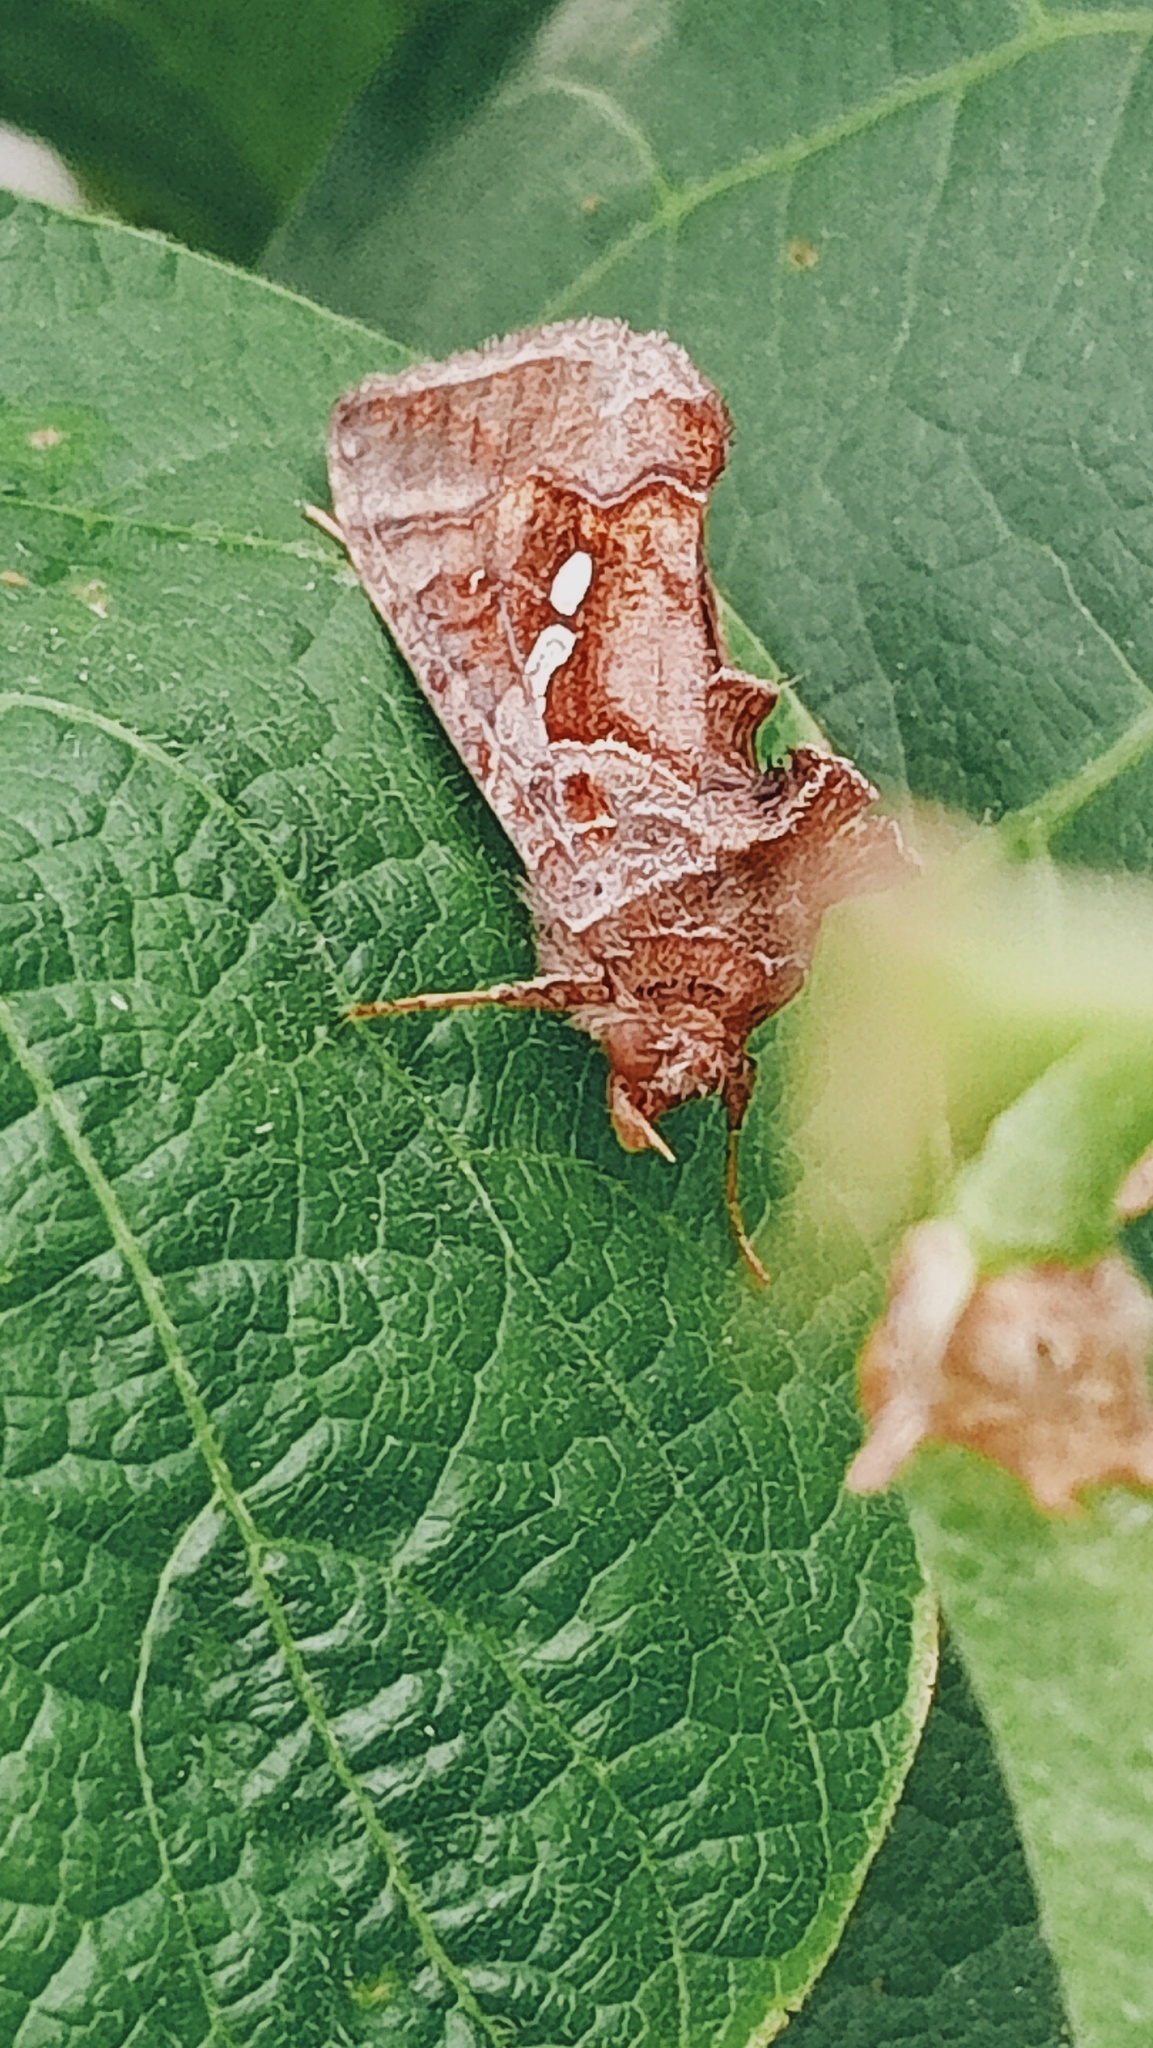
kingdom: Animalia
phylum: Arthropoda
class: Insecta
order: Lepidoptera
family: Noctuidae
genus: Chrysodeixis
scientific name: Chrysodeixis eriosoma
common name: Green garden looper
